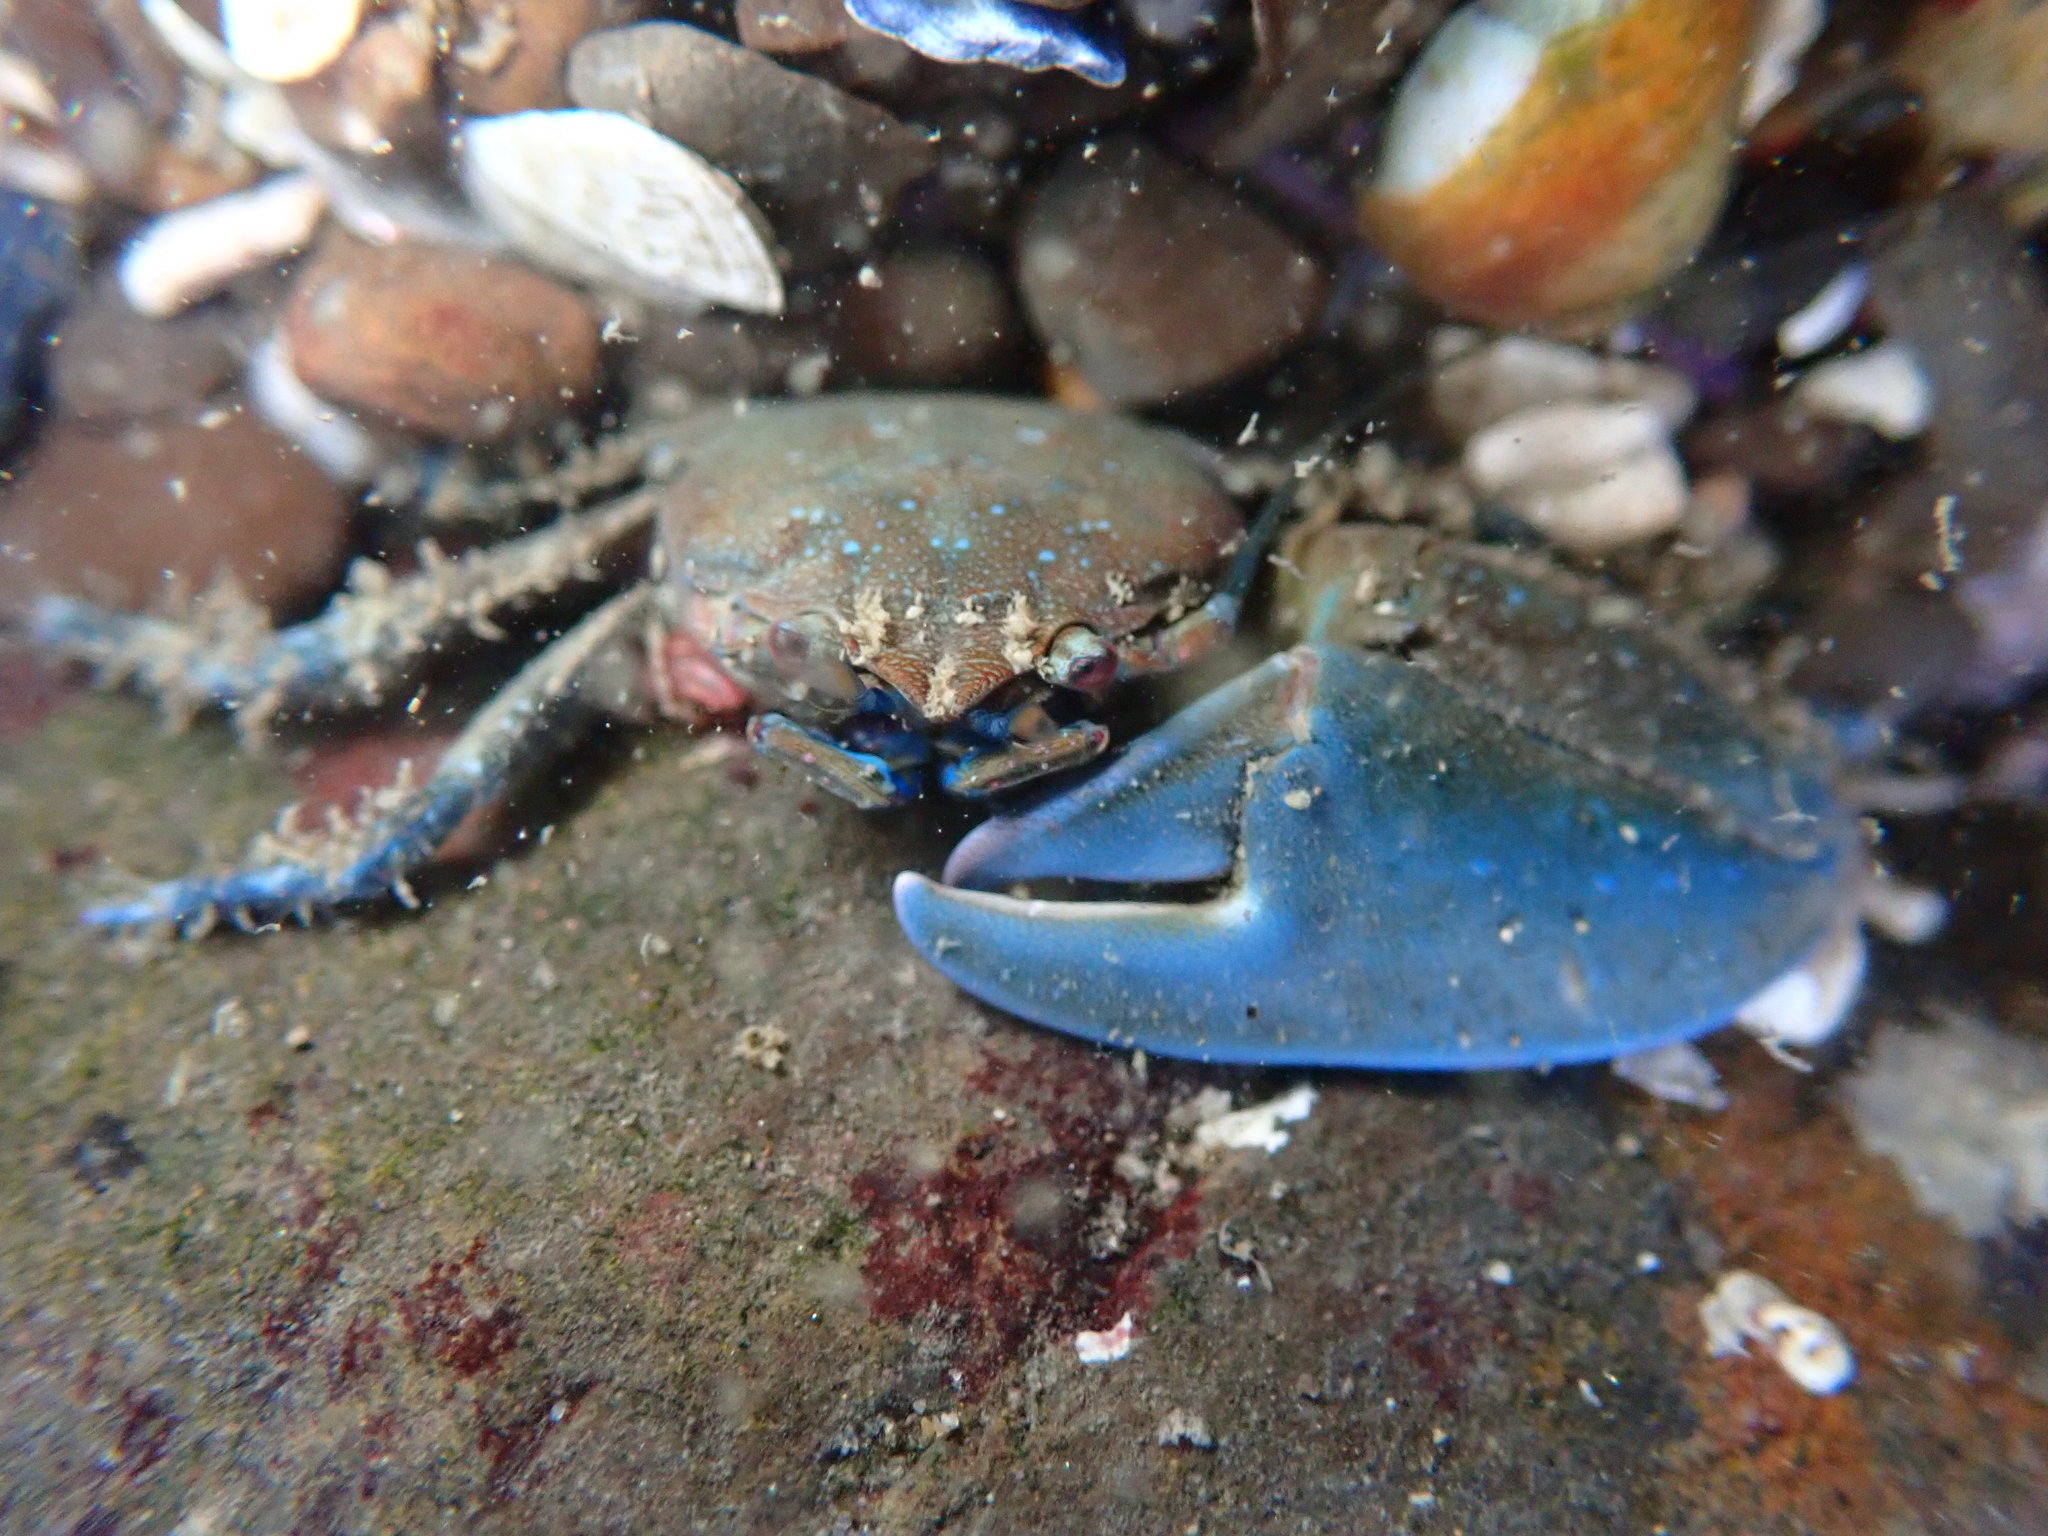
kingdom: Animalia
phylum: Arthropoda
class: Malacostraca
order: Decapoda
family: Porcellanidae
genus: Petrolisthes
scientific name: Petrolisthes manimaculis
